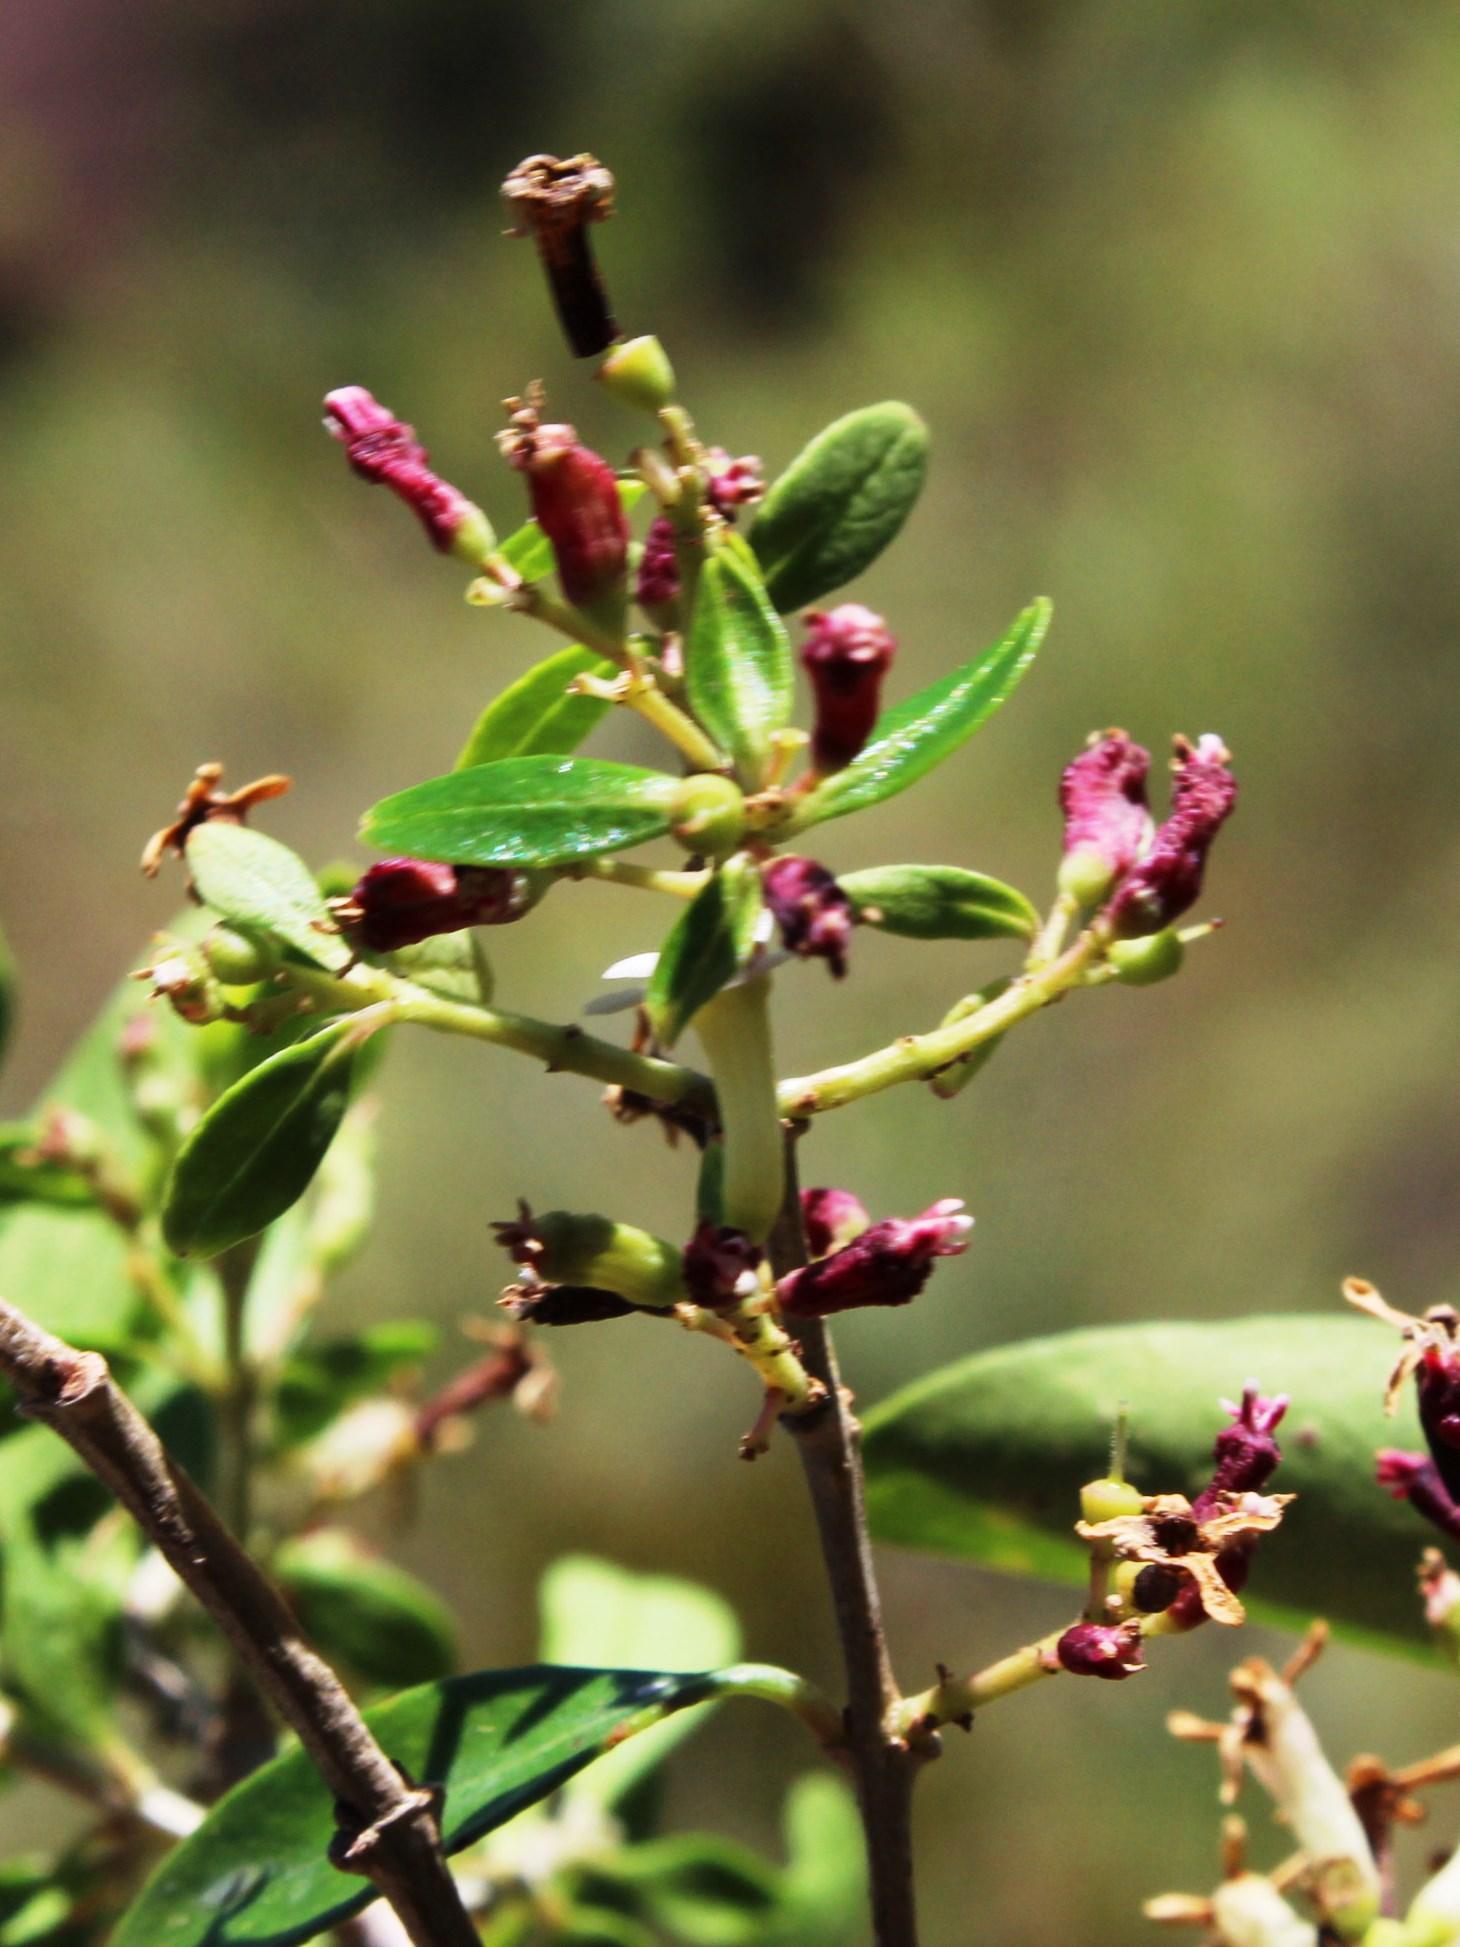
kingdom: Plantae
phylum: Tracheophyta
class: Magnoliopsida
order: Myrtales
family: Penaeaceae
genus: Olinia
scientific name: Olinia emarginata
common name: Mountain hard pear
